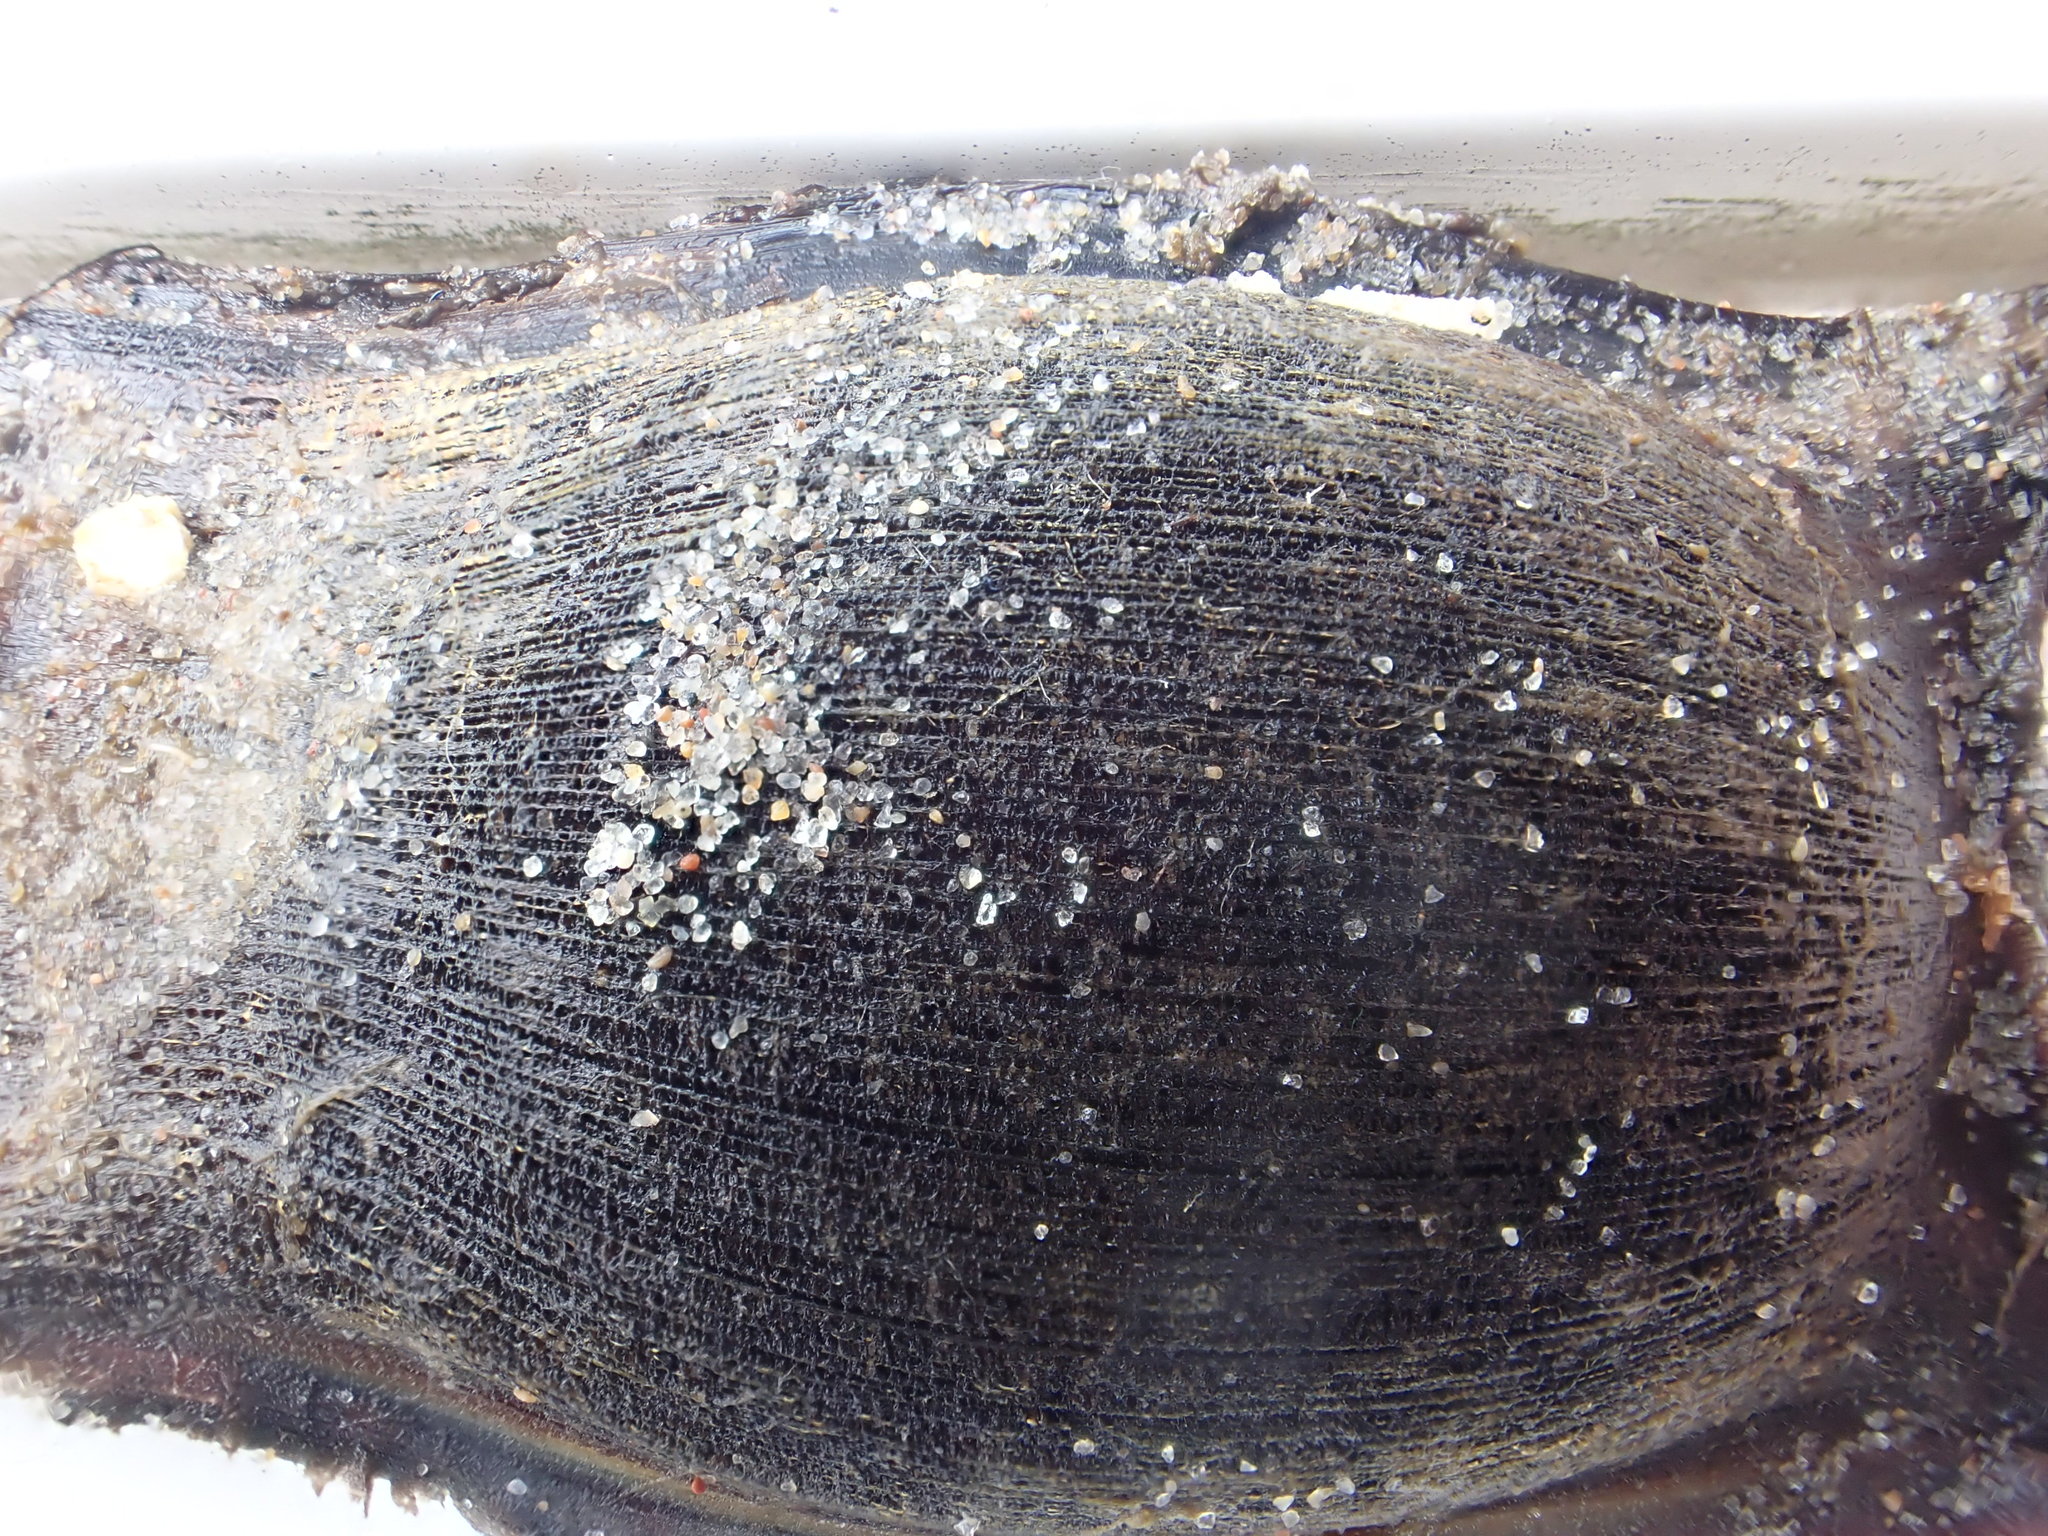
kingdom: Animalia
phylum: Chordata
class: Elasmobranchii
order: Rajiformes
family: Rajidae
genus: Amblyraja
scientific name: Amblyraja radiata
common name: Starry ray
